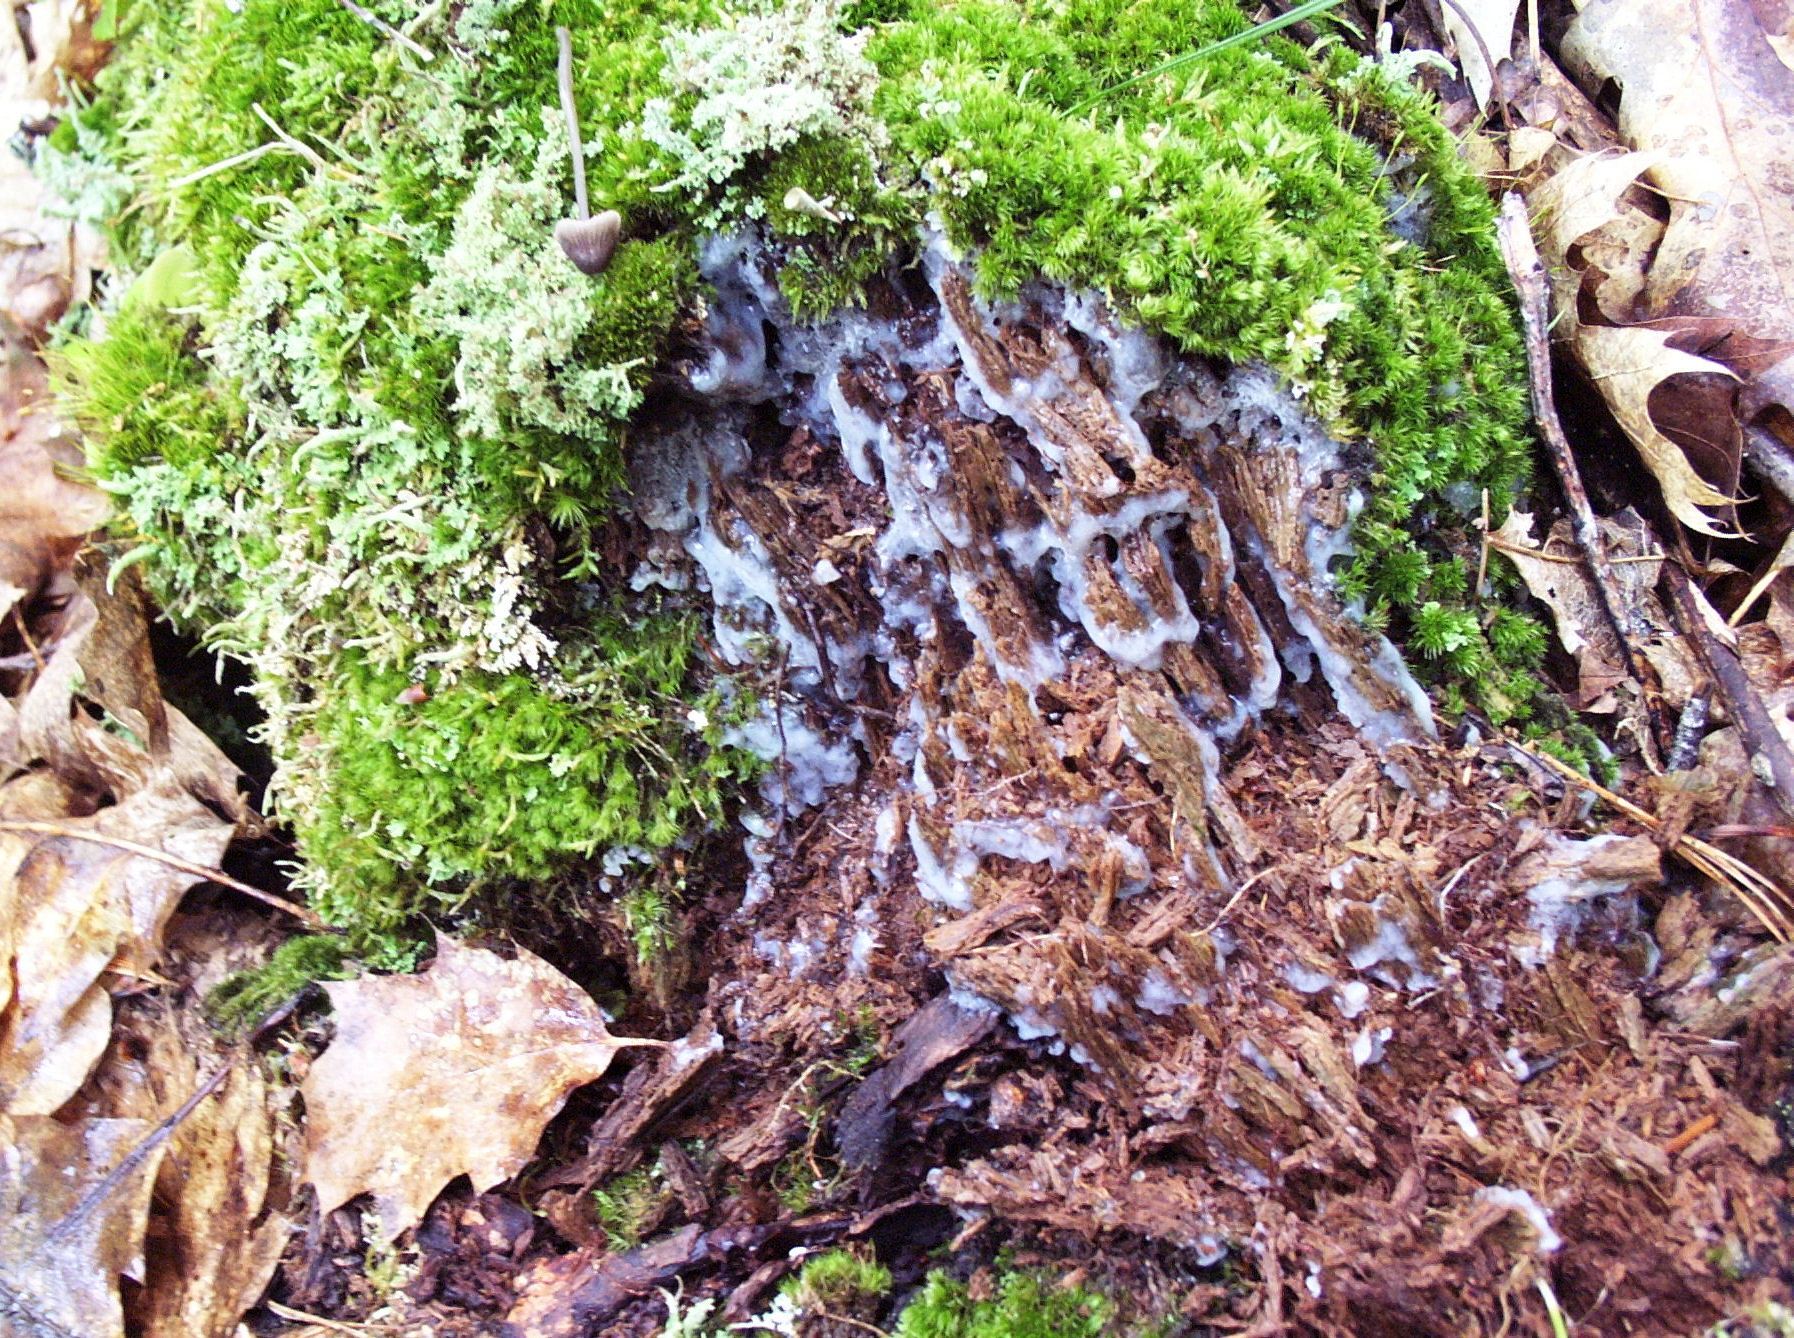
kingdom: Protozoa
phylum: Mycetozoa
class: Protosteliomycetes
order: Ceratiomyxales
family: Ceratiomyxaceae
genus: Ceratiomyxa
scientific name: Ceratiomyxa fruticulosa
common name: Honeycomb coral slime mold
